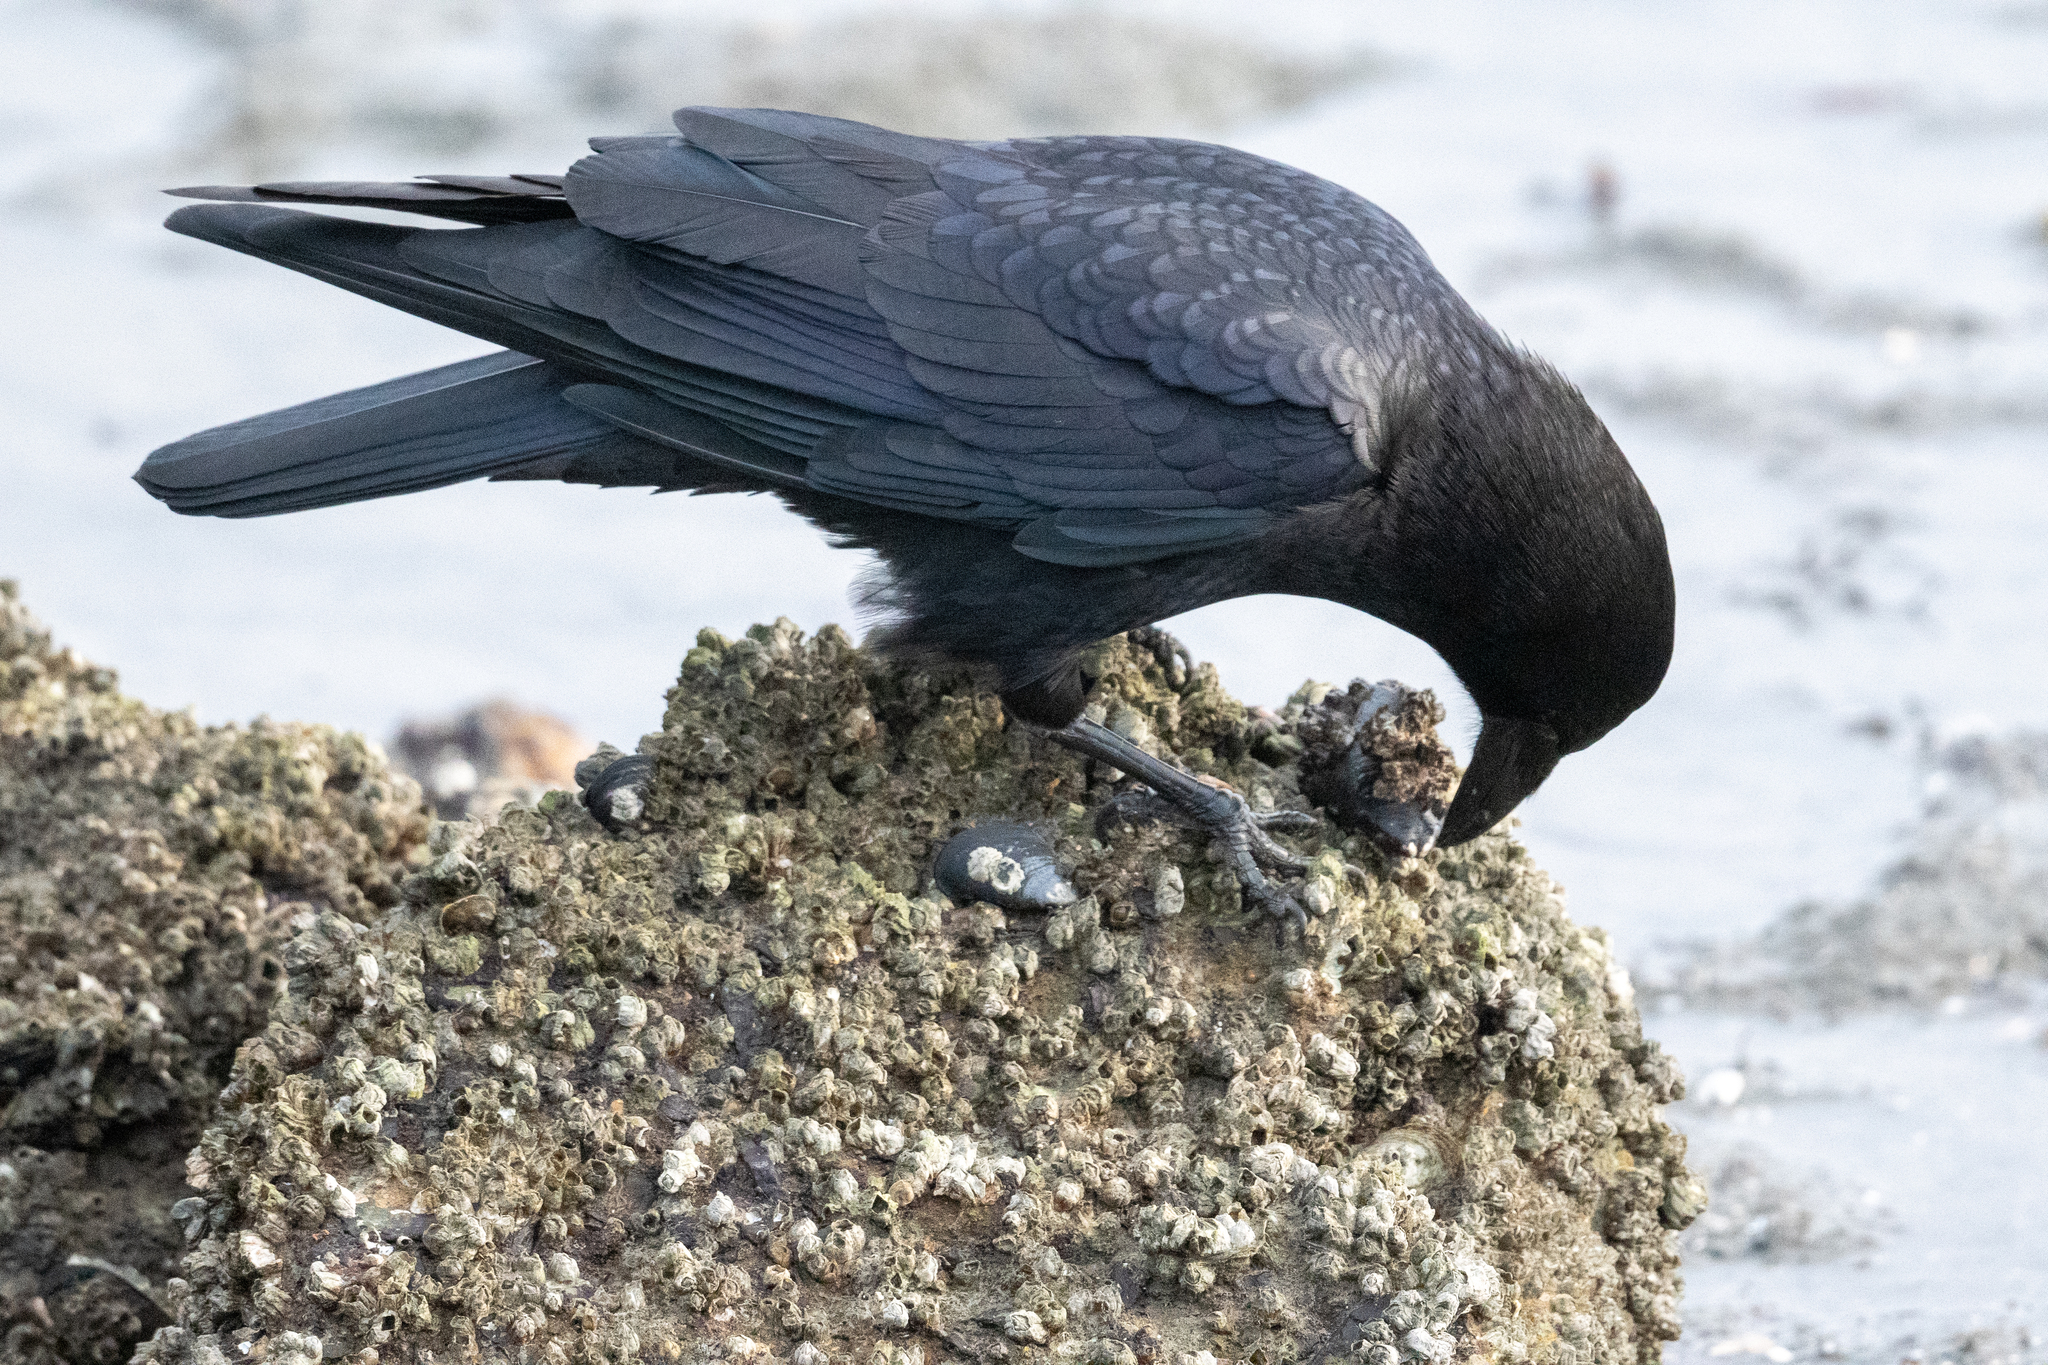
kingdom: Animalia
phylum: Chordata
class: Aves
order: Passeriformes
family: Corvidae
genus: Corvus
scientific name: Corvus brachyrhynchos
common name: American crow
